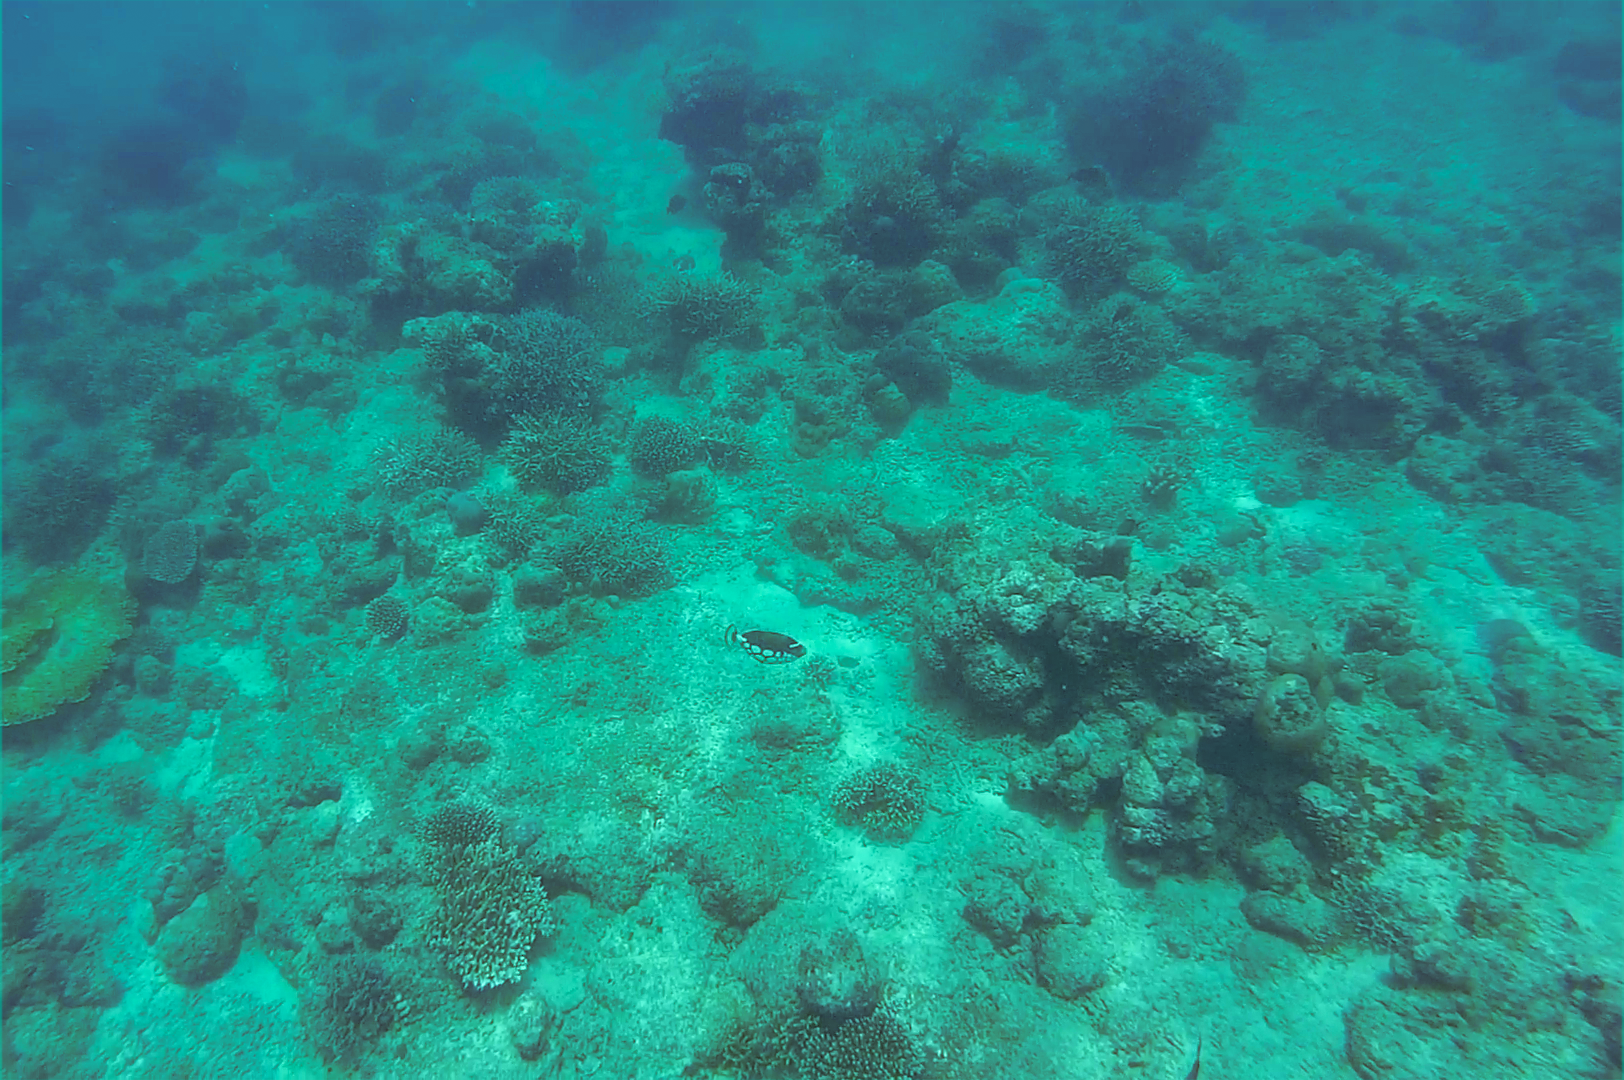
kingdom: Animalia
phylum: Chordata
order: Tetraodontiformes
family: Balistidae
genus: Balistoides
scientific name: Balistoides conspicillum
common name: Clown triggerfish
